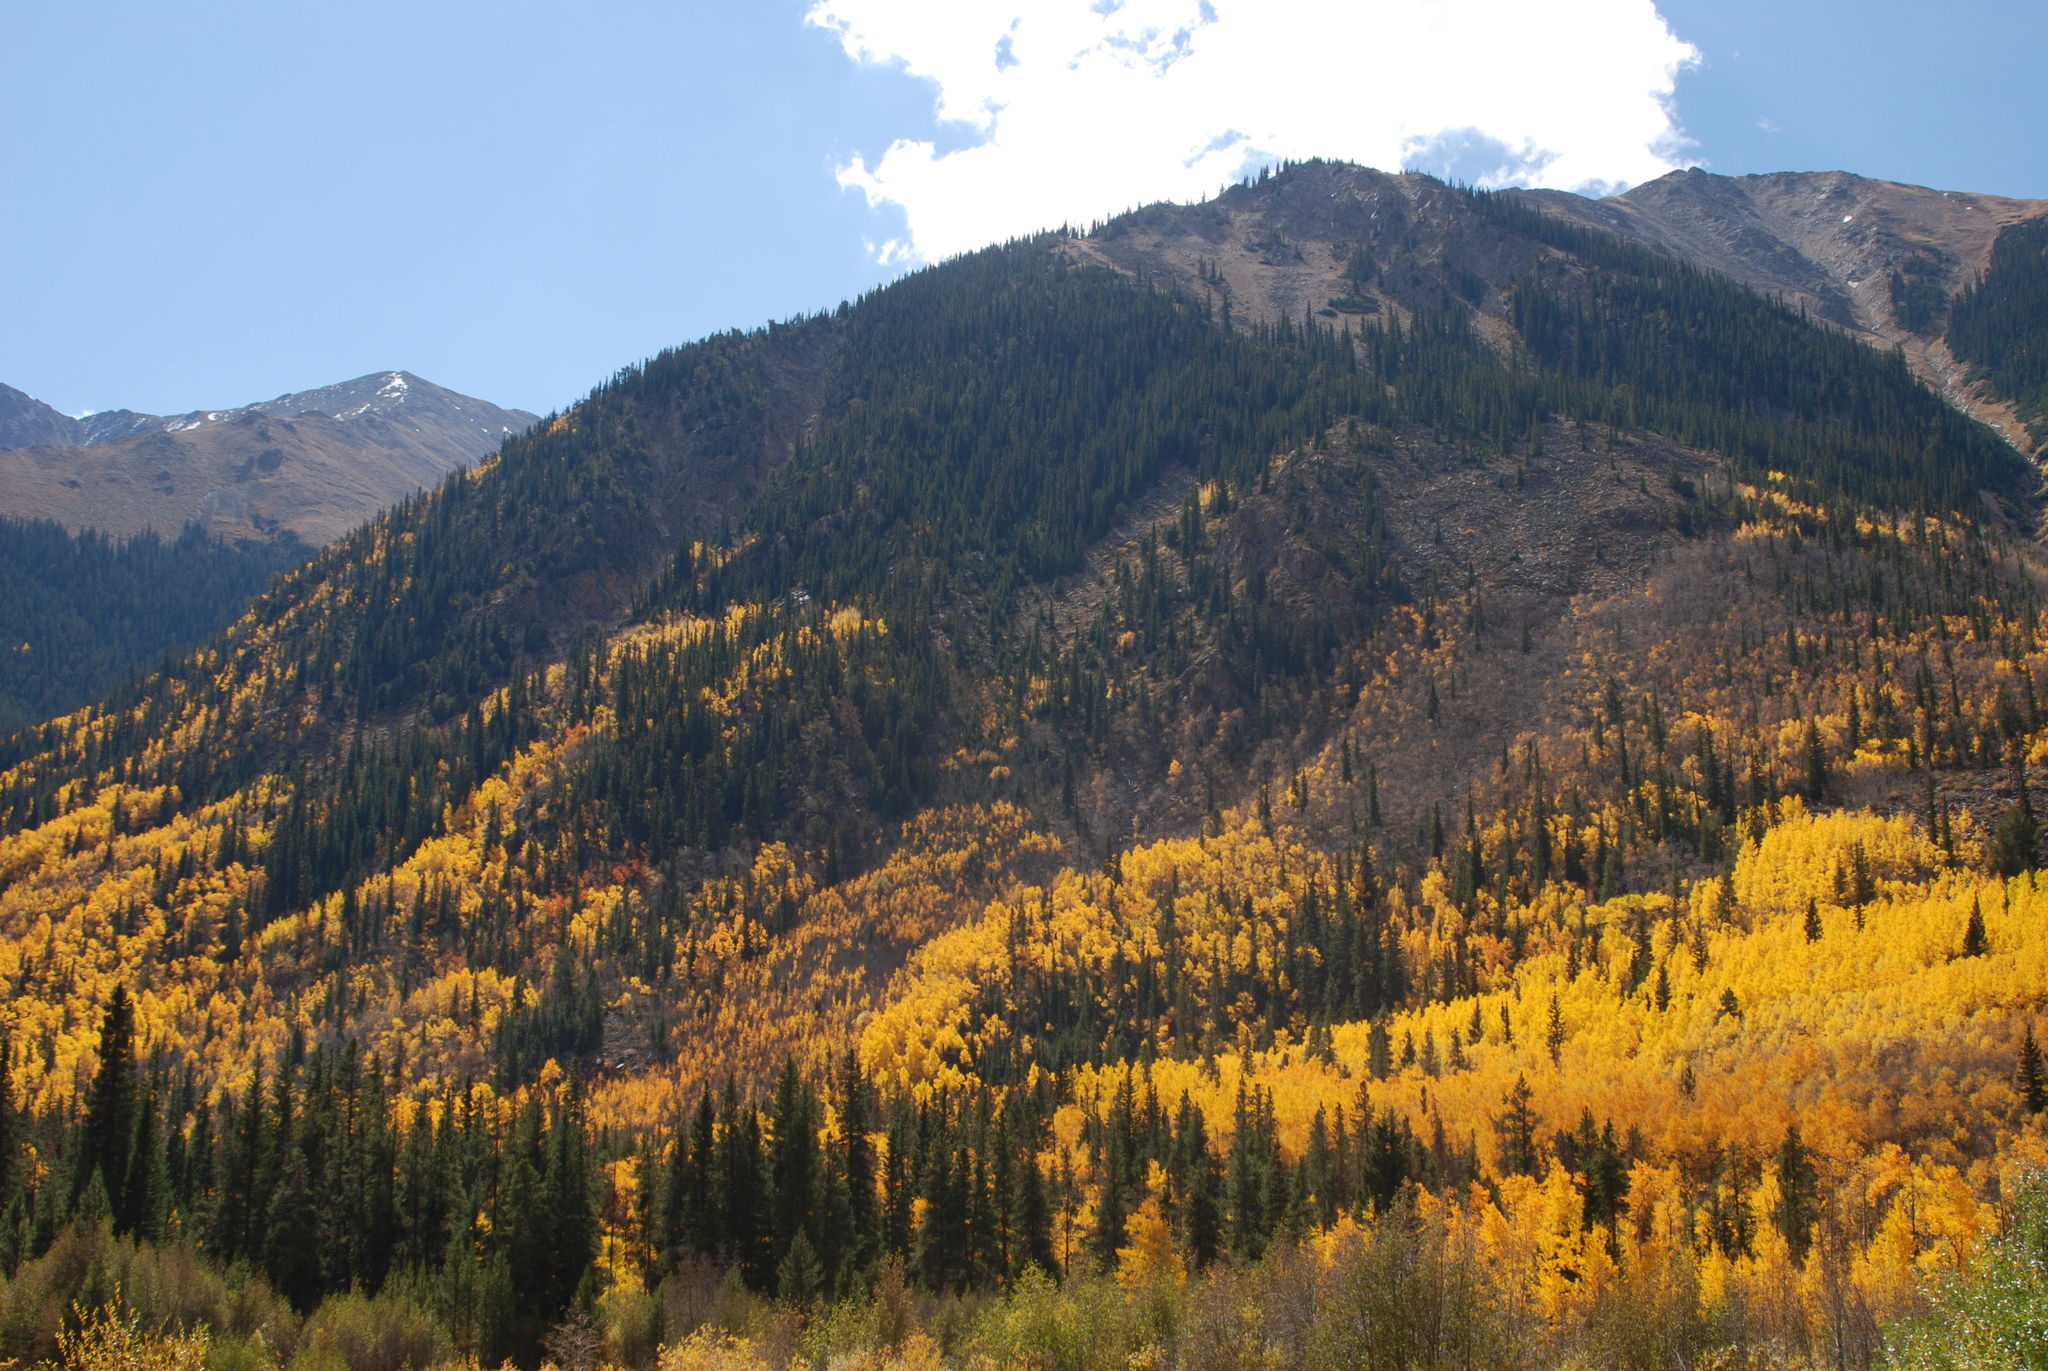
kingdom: Plantae
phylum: Tracheophyta
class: Magnoliopsida
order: Malpighiales
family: Salicaceae
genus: Populus
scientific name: Populus tremuloides
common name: Quaking aspen
